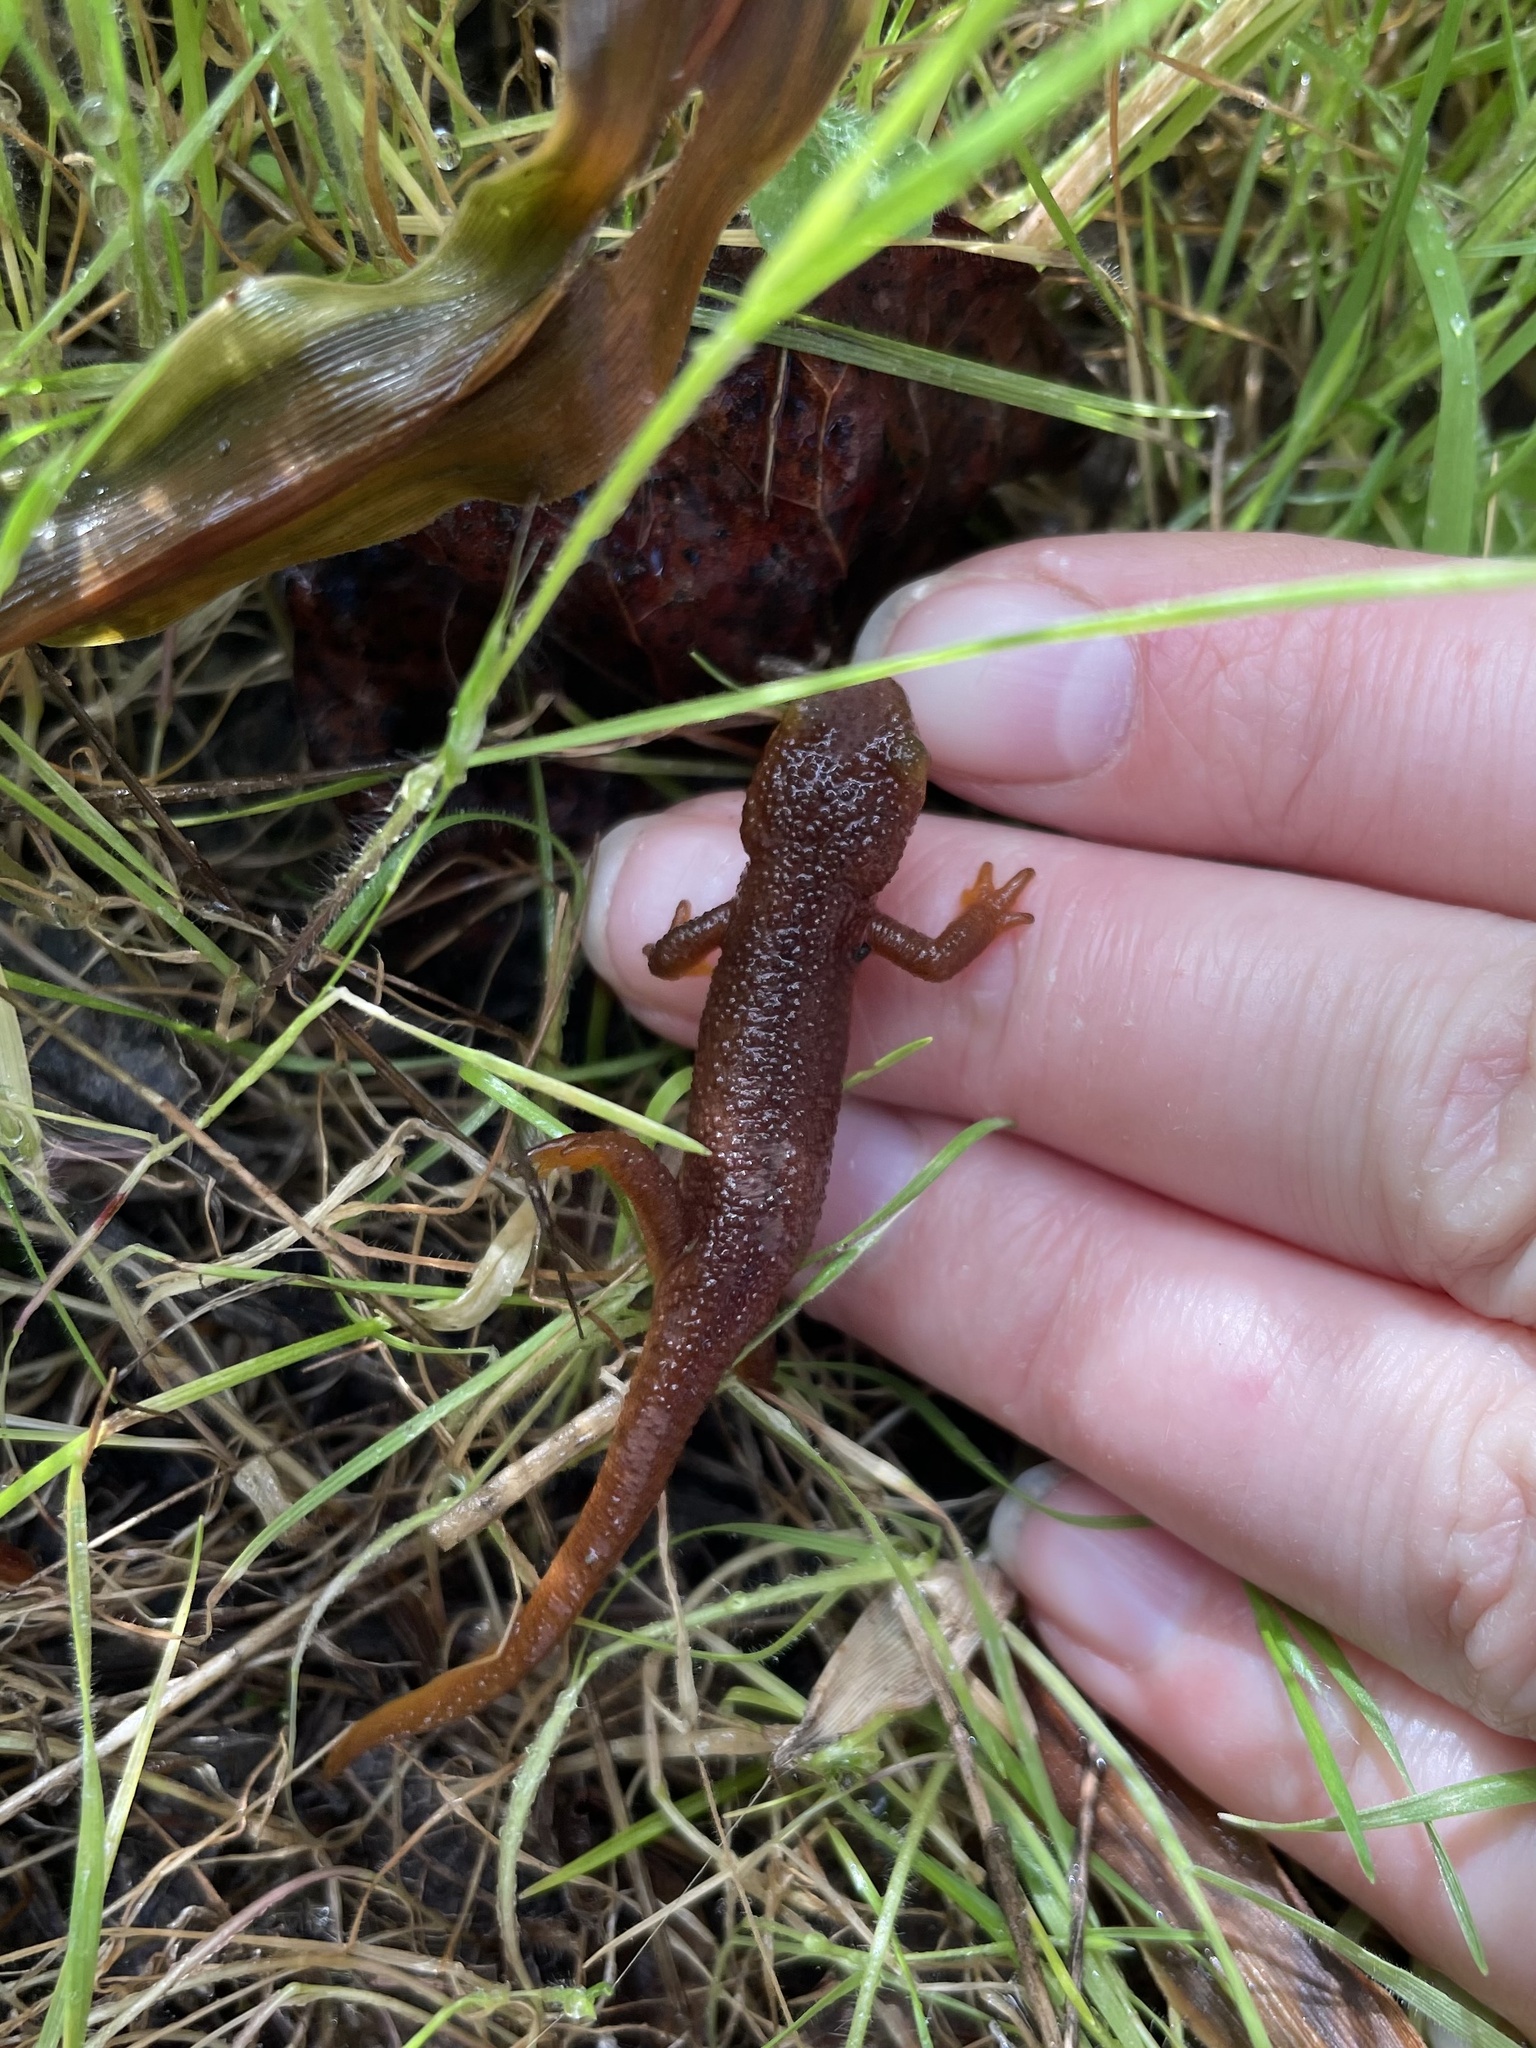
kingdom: Animalia
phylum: Chordata
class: Amphibia
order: Caudata
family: Salamandridae
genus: Taricha
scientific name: Taricha torosa
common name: California newt
